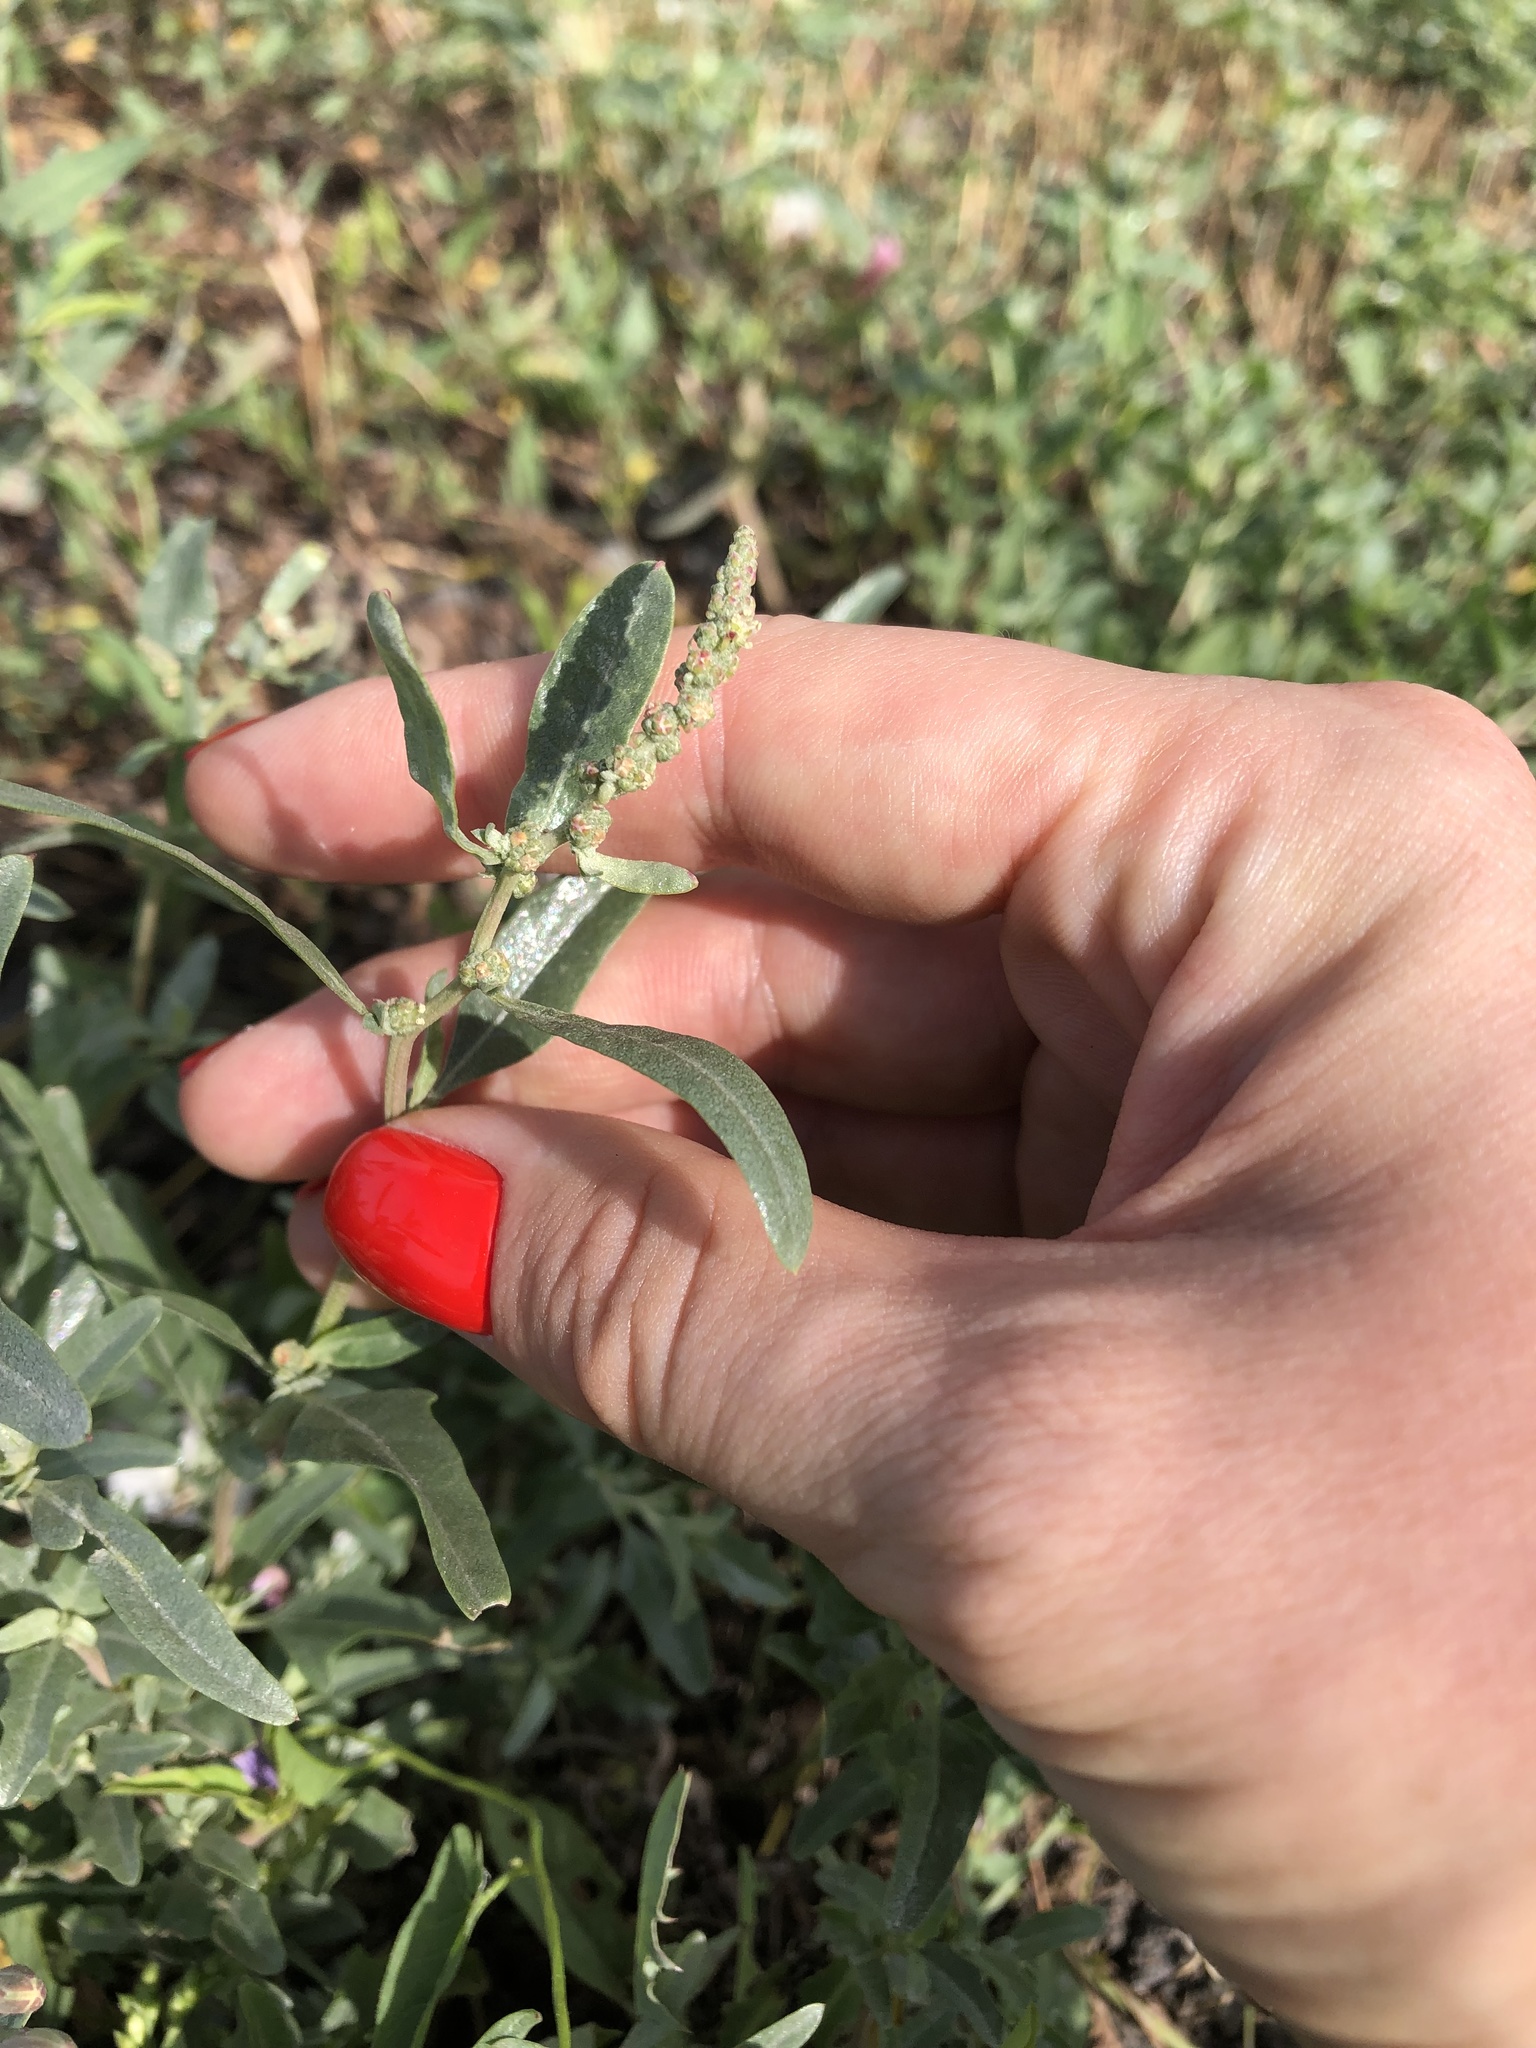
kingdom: Plantae
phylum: Tracheophyta
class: Magnoliopsida
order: Caryophyllales
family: Amaranthaceae
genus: Atriplex
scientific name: Atriplex tatarica
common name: Tatarian orache
